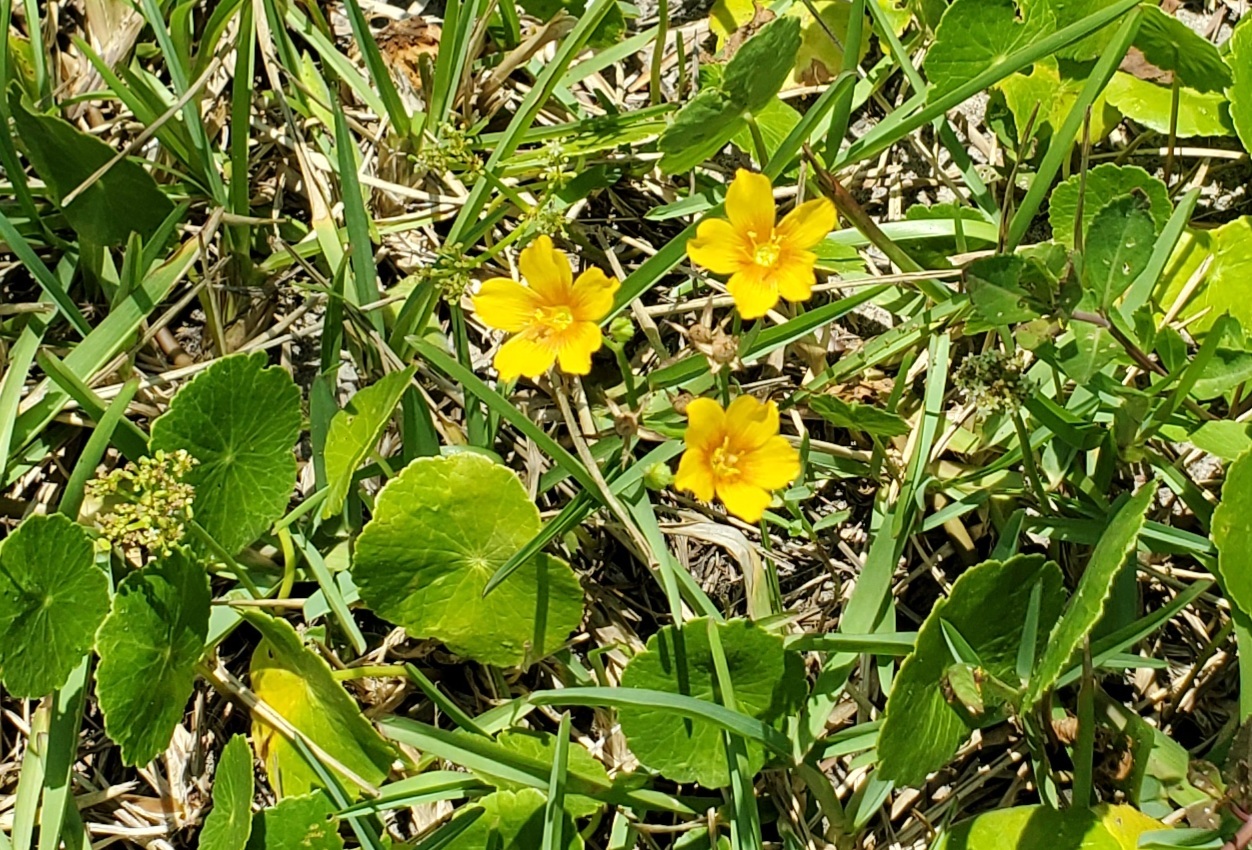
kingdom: Plantae
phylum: Tracheophyta
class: Magnoliopsida
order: Malpighiales
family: Linaceae
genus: Linum
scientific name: Linum berlandieri
